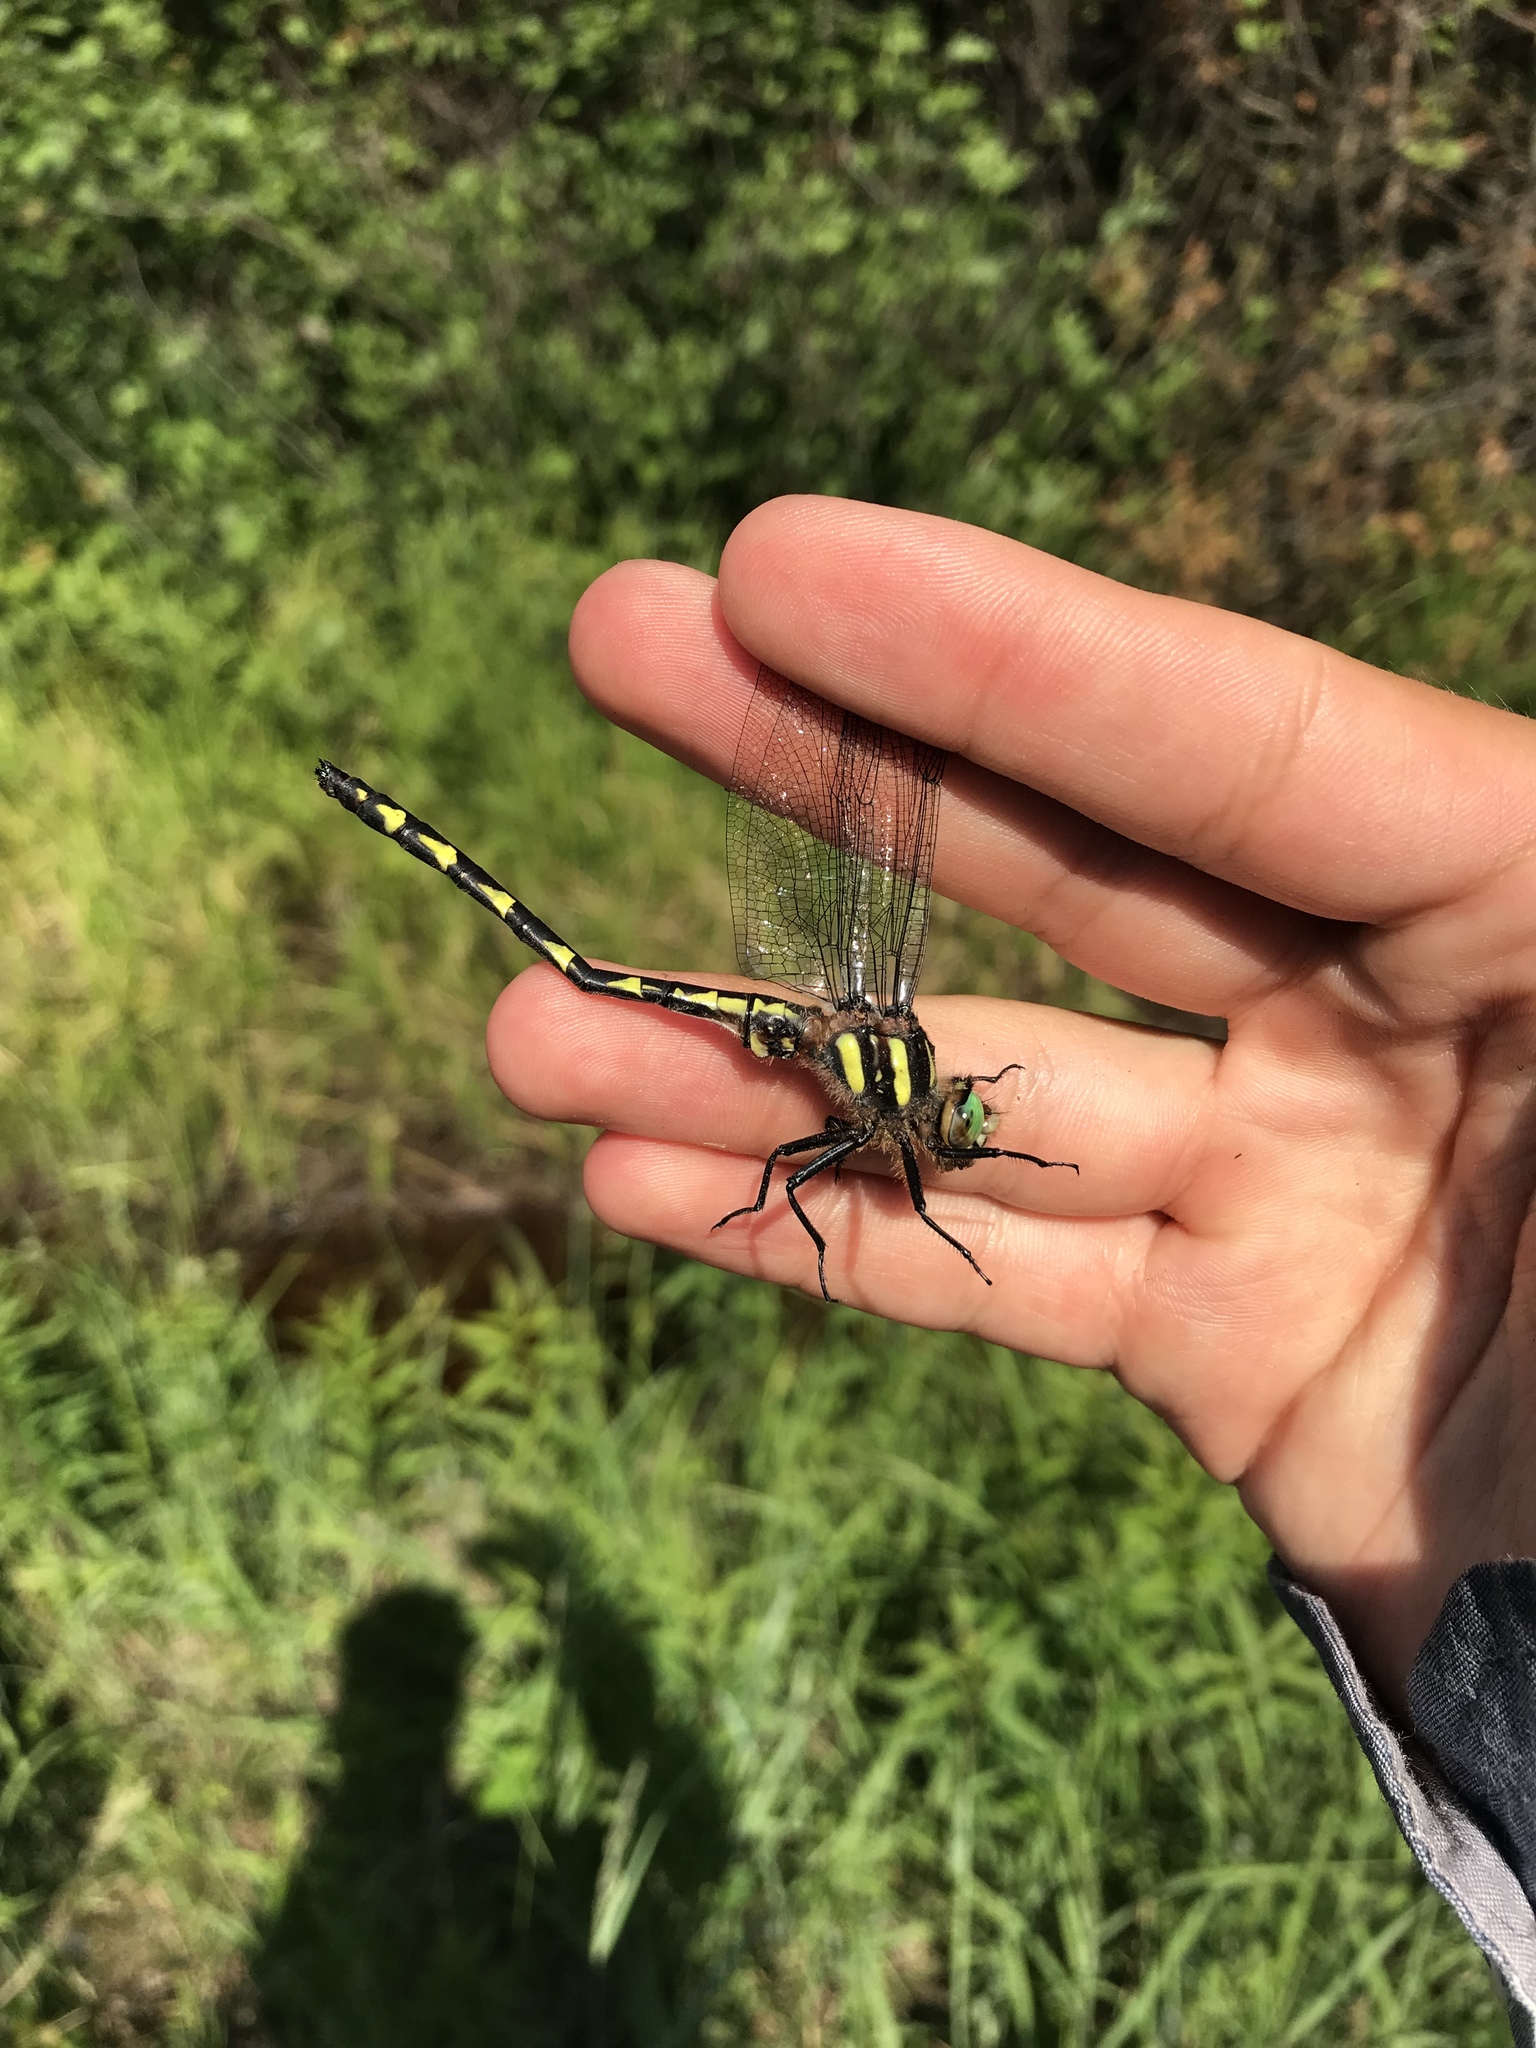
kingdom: Animalia
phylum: Arthropoda
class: Insecta
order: Odonata
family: Cordulegastridae
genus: Cordulegaster
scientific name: Cordulegaster diastatops
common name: Delta-spotted spiketail
